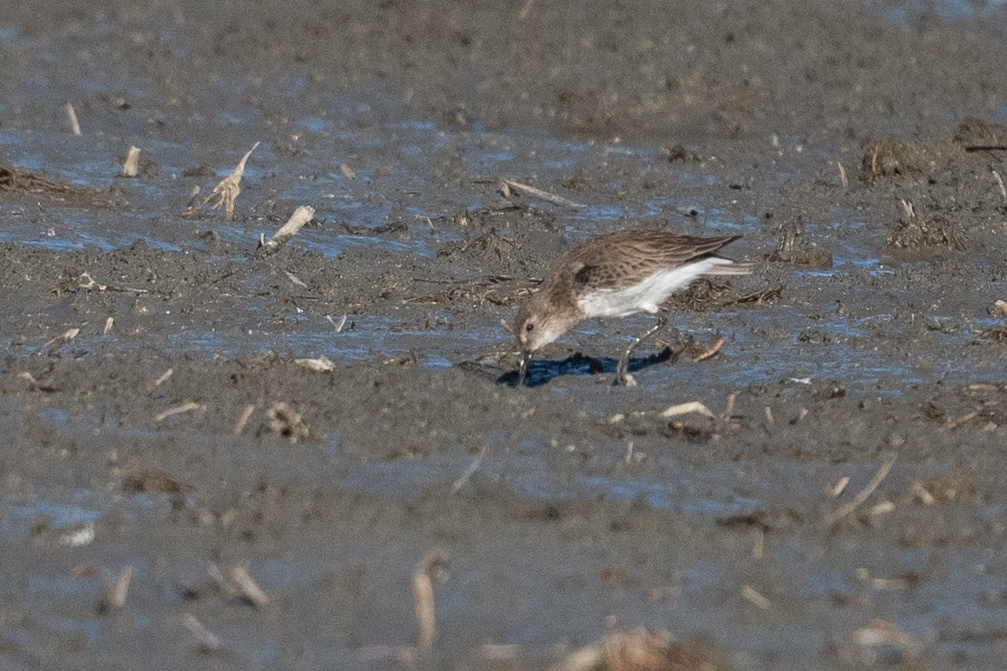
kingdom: Animalia
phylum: Chordata
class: Aves
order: Charadriiformes
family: Scolopacidae
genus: Calidris
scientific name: Calidris alpina
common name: Dunlin
